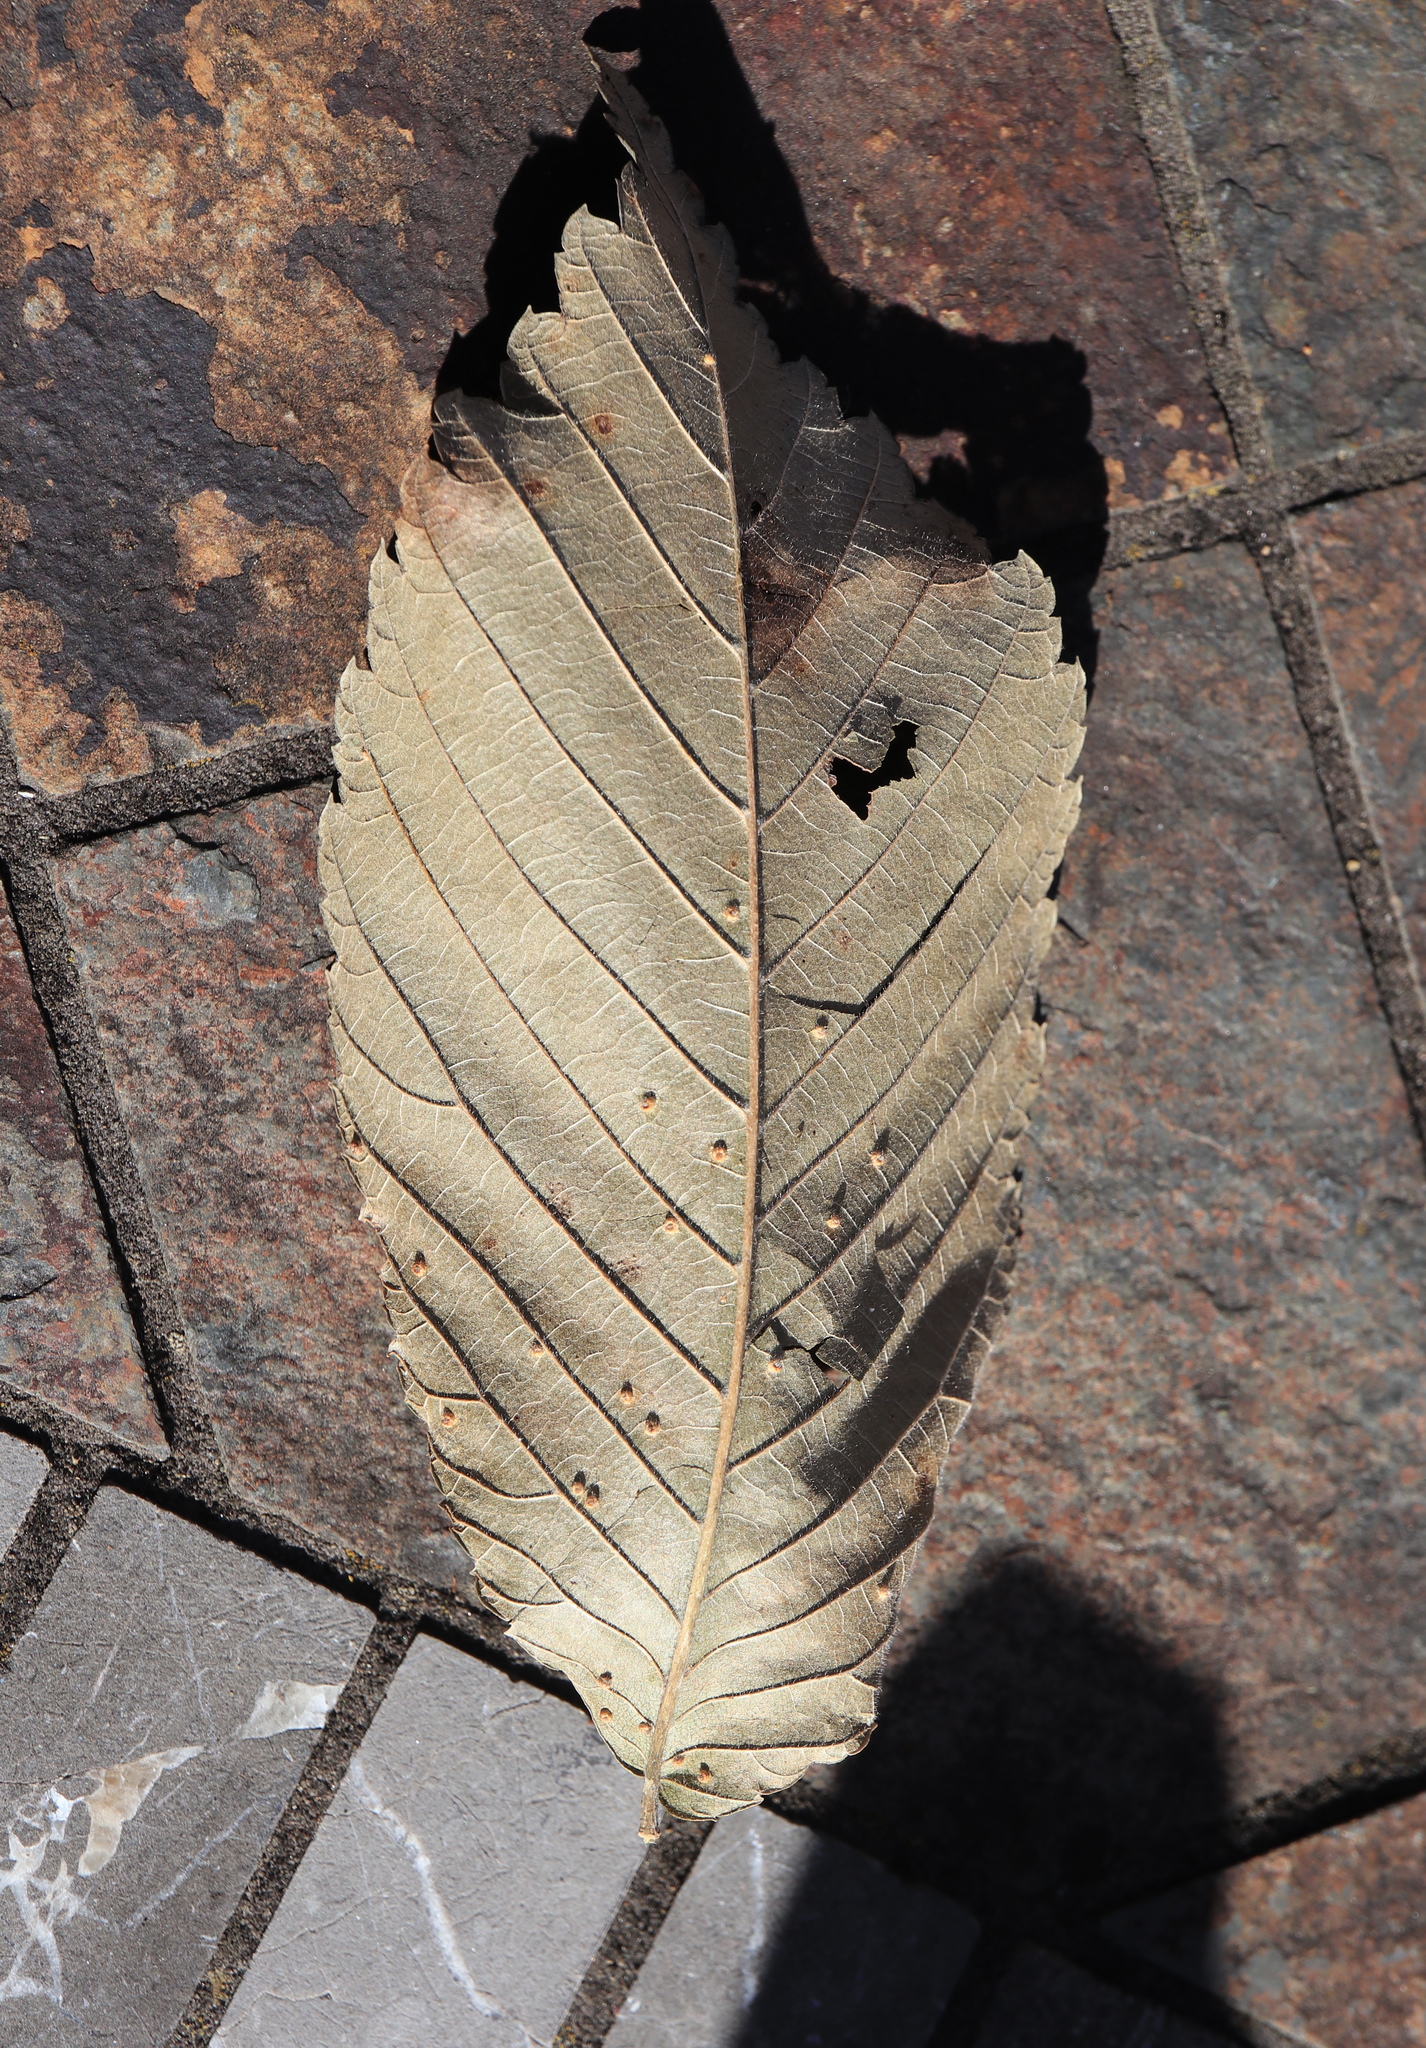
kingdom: Animalia
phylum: Arthropoda
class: Arachnida
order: Trombidiformes
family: Eriophyidae
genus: Aceria
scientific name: Aceria brevipunctata
